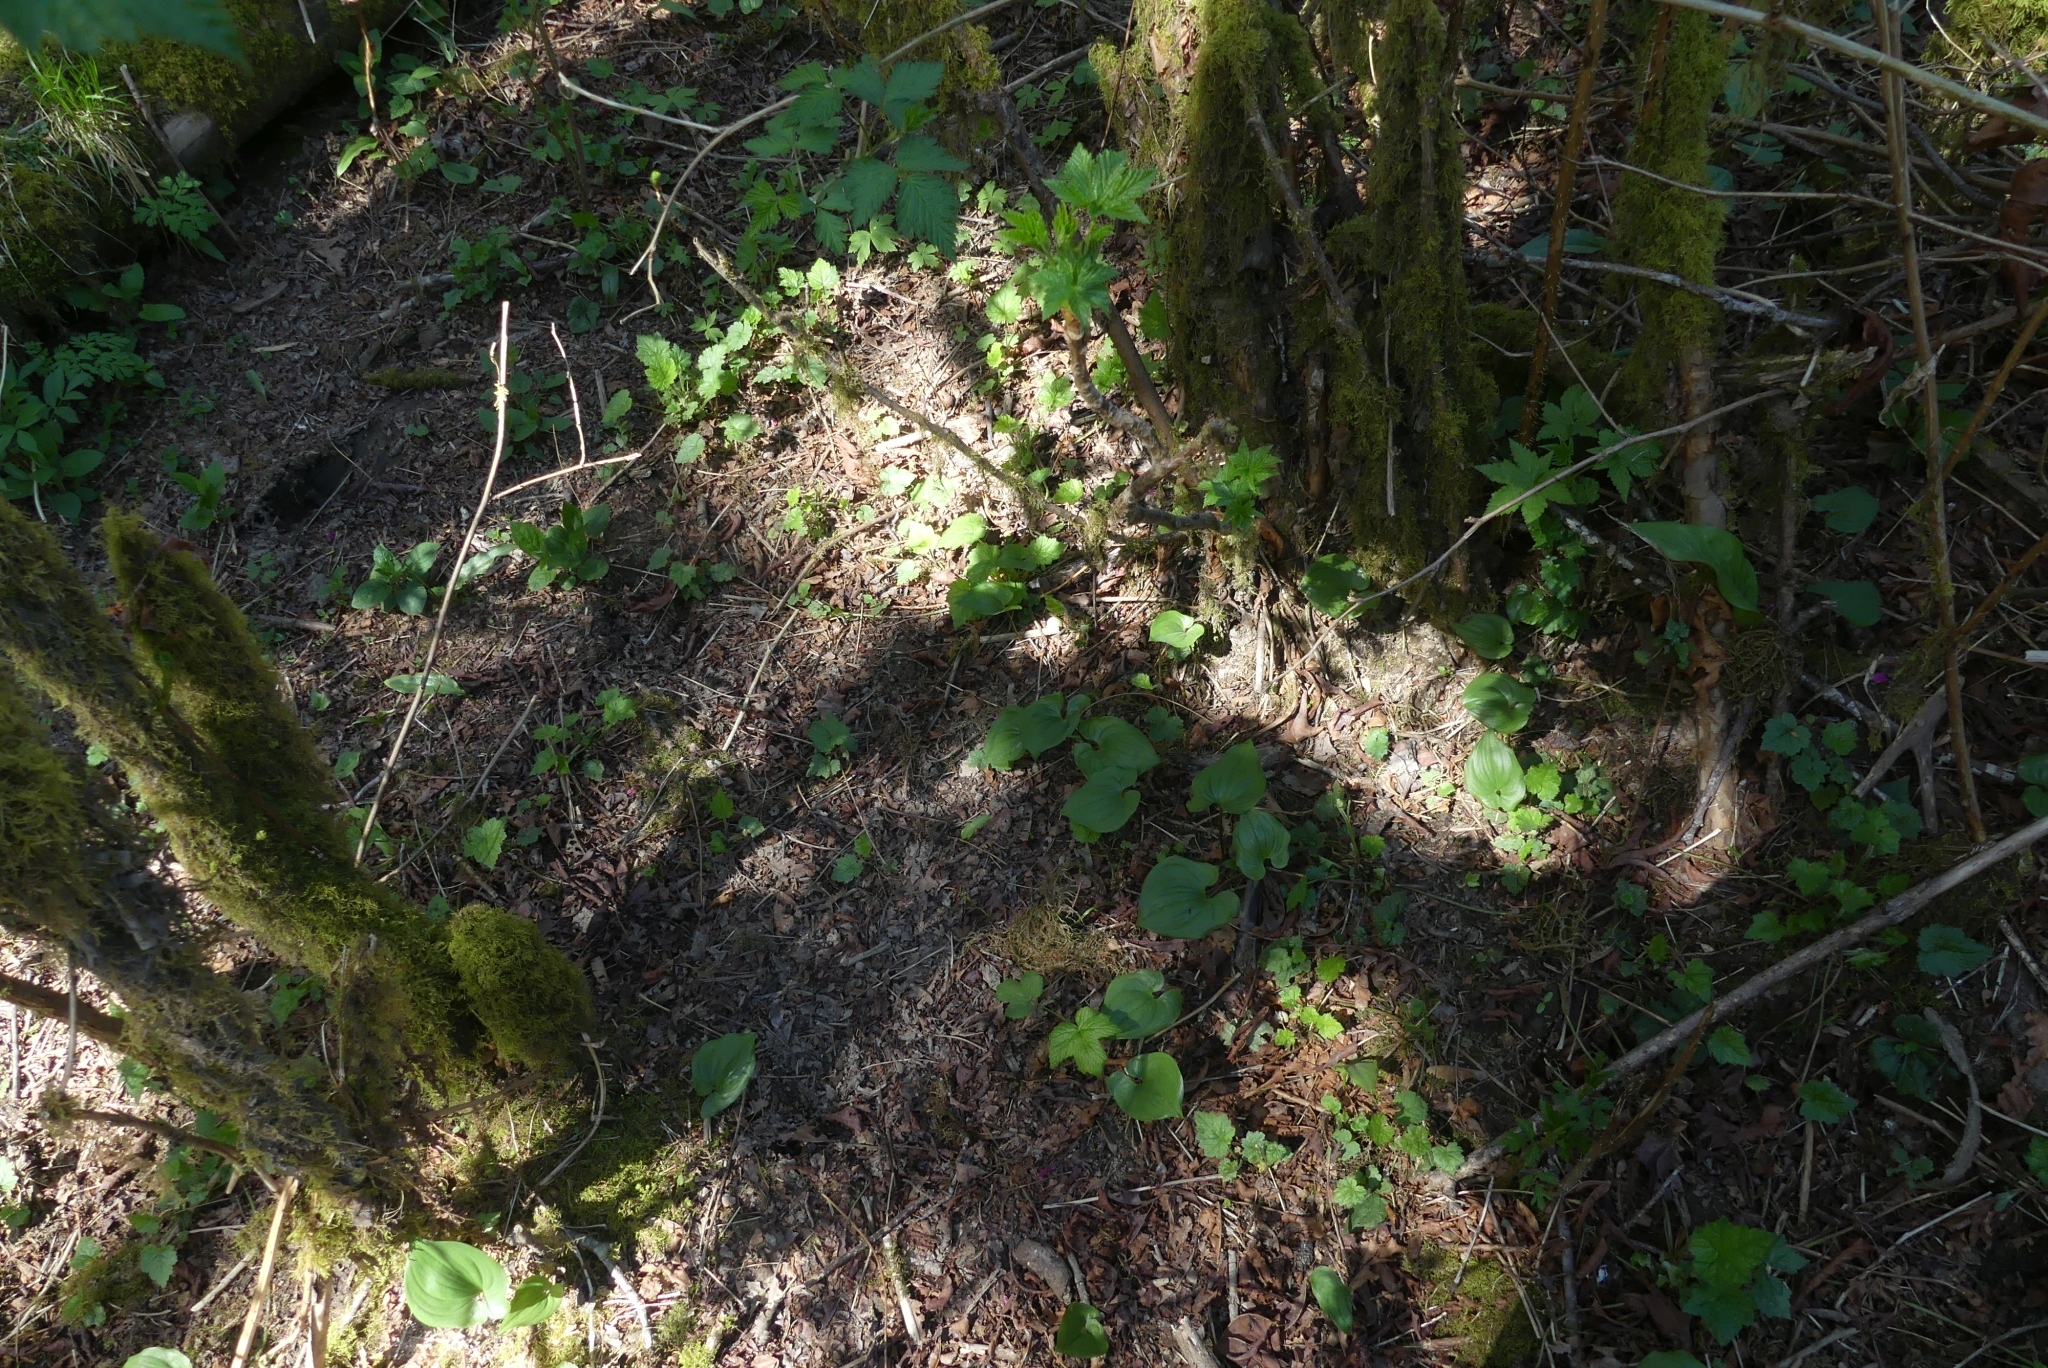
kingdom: Plantae
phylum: Tracheophyta
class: Liliopsida
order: Asparagales
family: Asparagaceae
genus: Maianthemum
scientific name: Maianthemum dilatatum
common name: False lily-of-the-valley
